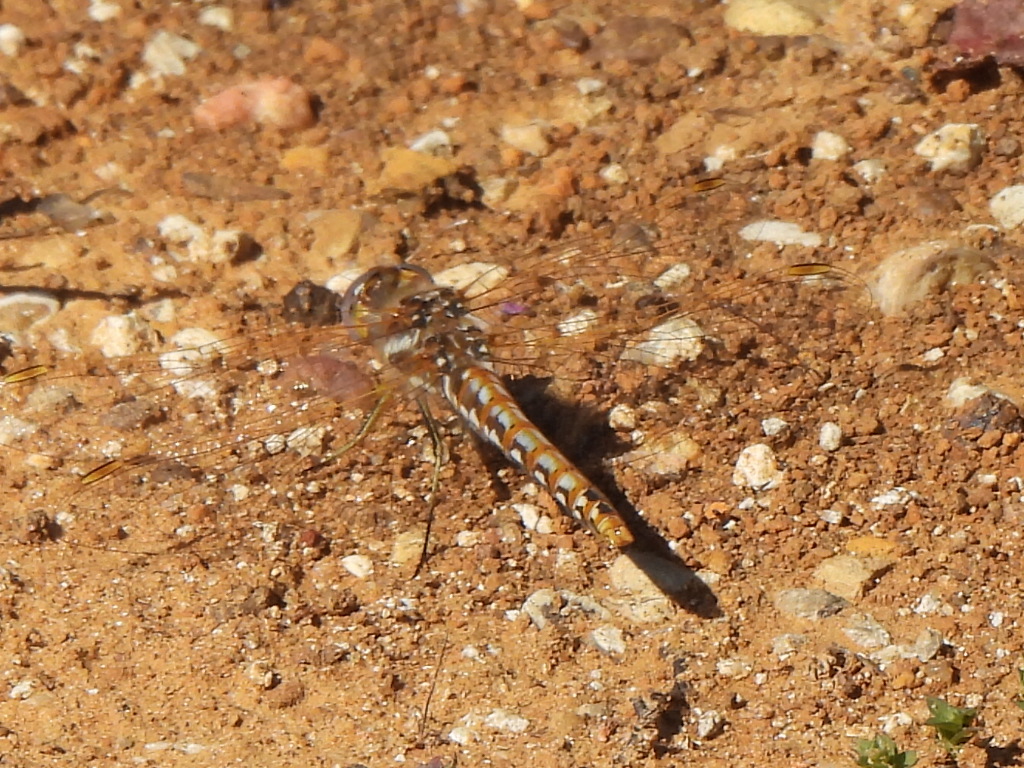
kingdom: Animalia
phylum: Arthropoda
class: Insecta
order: Odonata
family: Libellulidae
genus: Sympetrum
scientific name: Sympetrum corruptum
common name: Variegated meadowhawk
